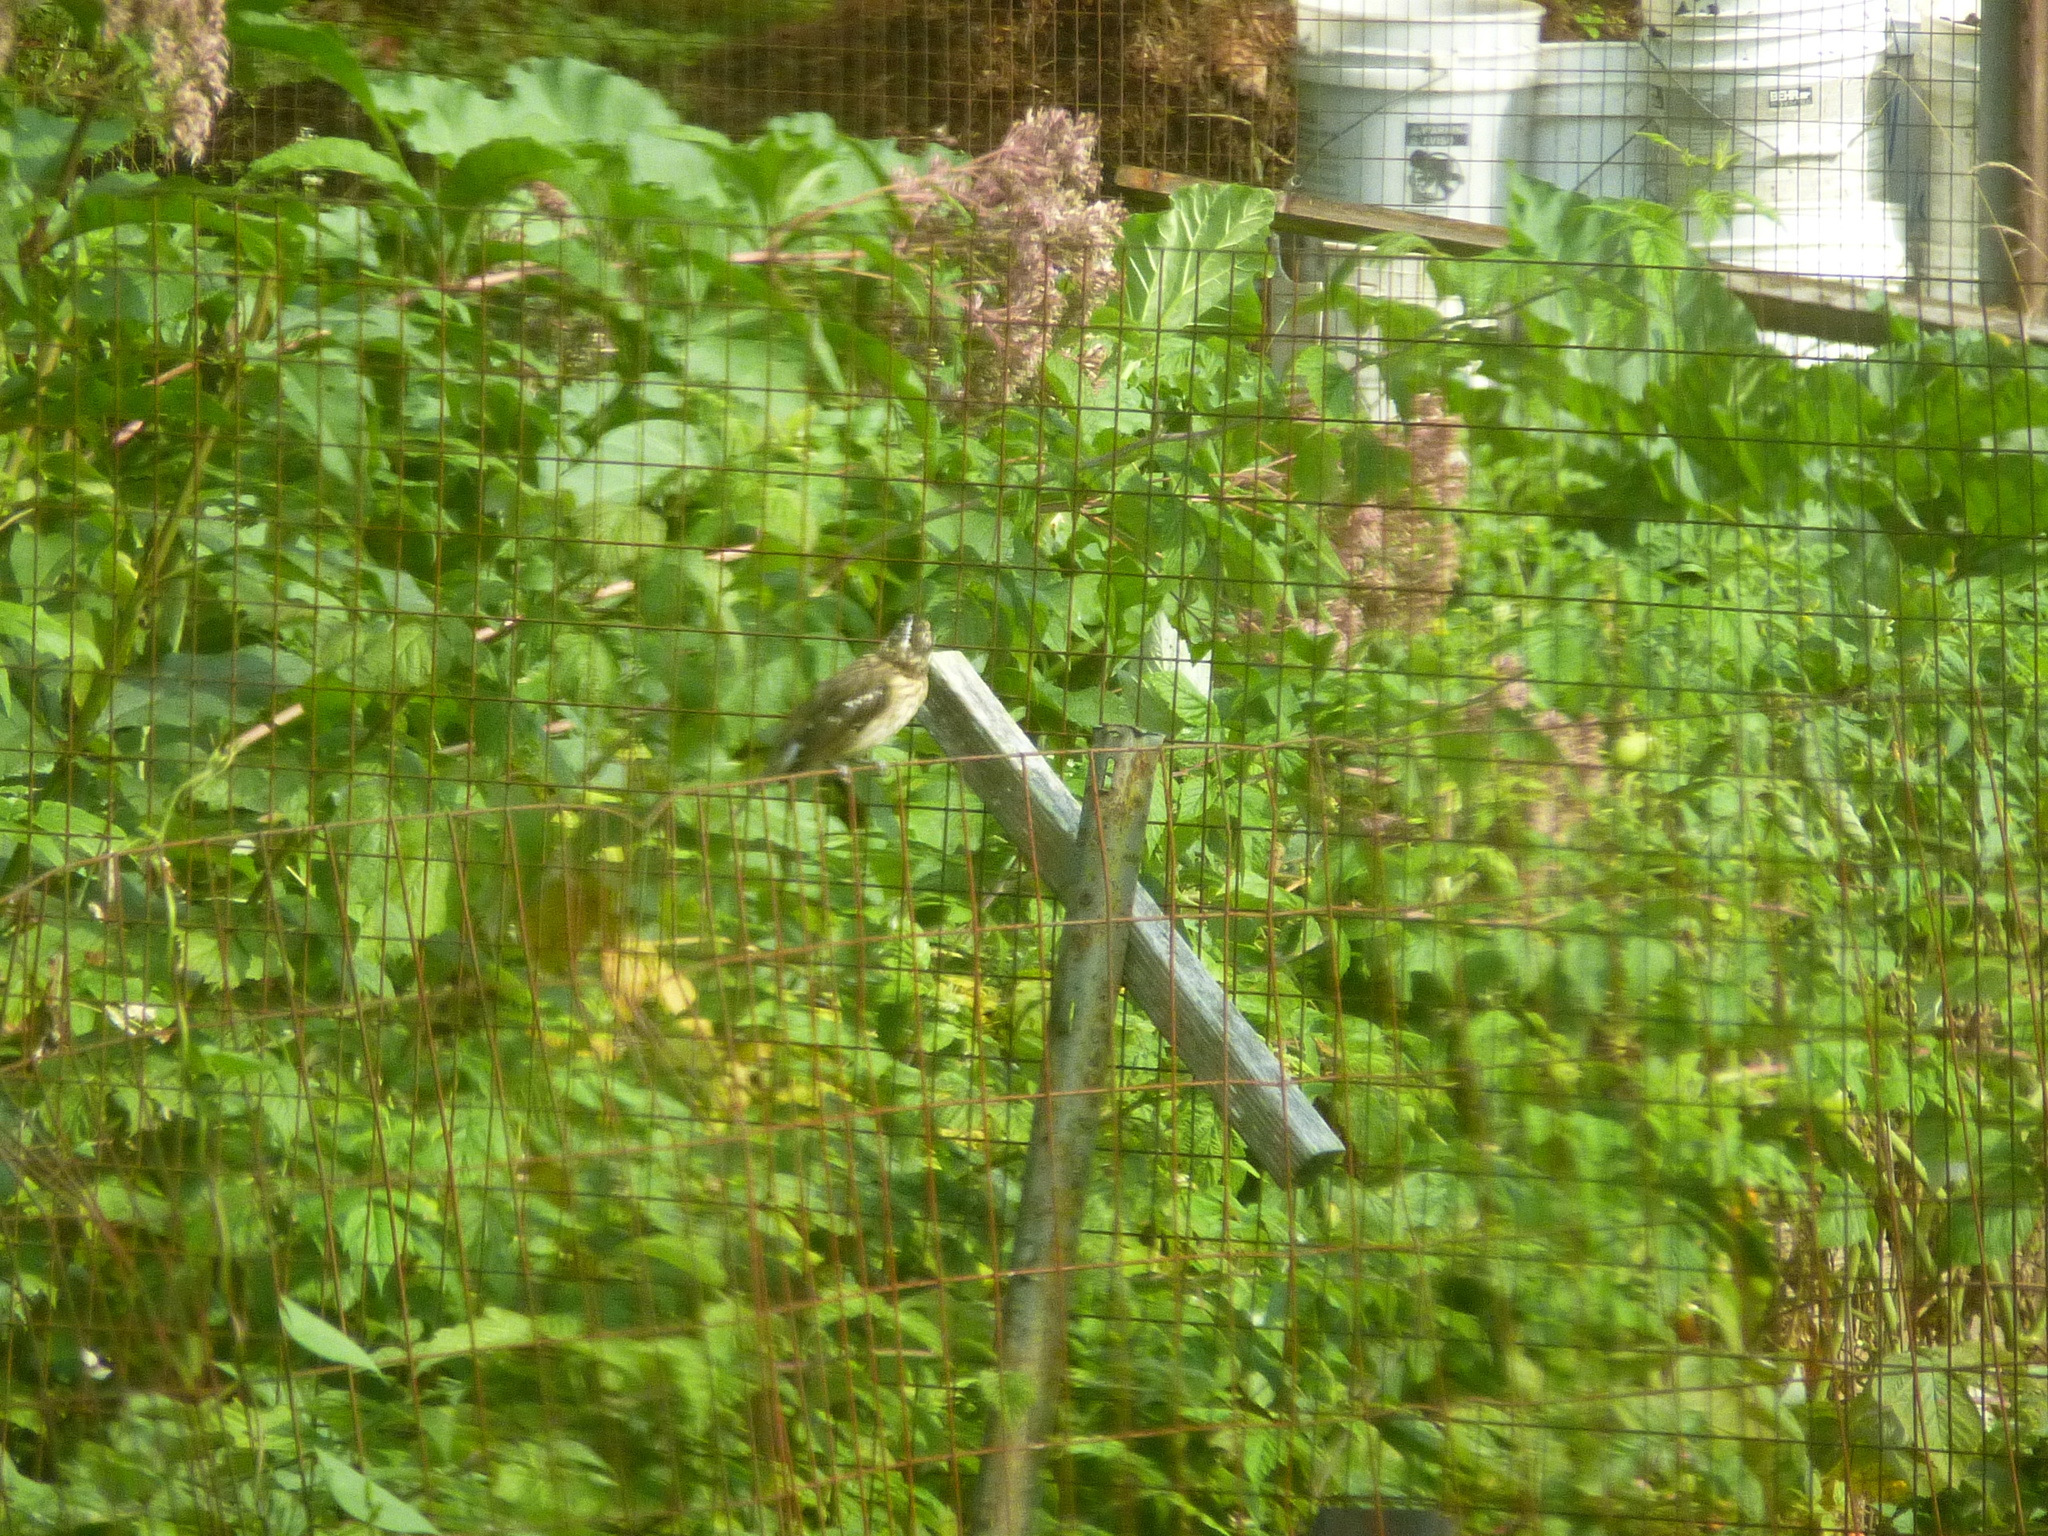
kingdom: Animalia
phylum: Chordata
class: Aves
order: Passeriformes
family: Cardinalidae
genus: Pheucticus
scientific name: Pheucticus ludovicianus
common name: Rose-breasted grosbeak
